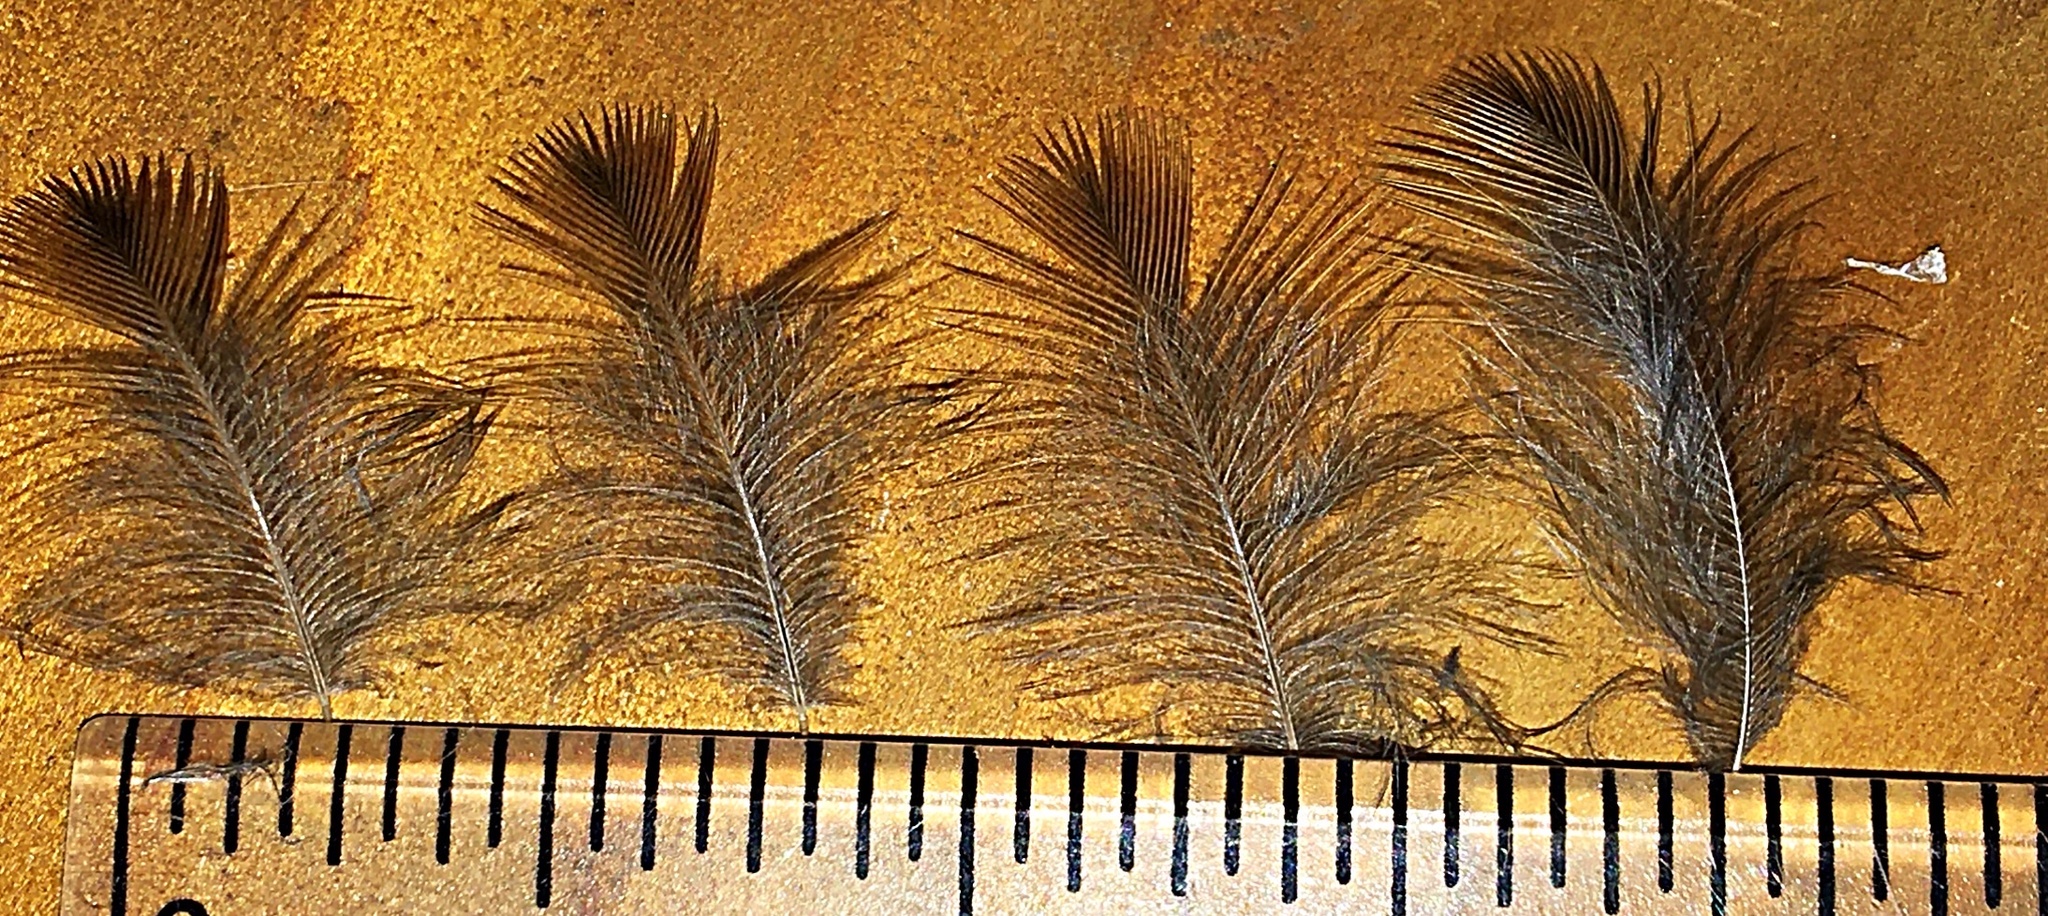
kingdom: Animalia
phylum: Chordata
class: Aves
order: Passeriformes
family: Passerellidae
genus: Zonotrichia
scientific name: Zonotrichia albicollis
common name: White-throated sparrow
